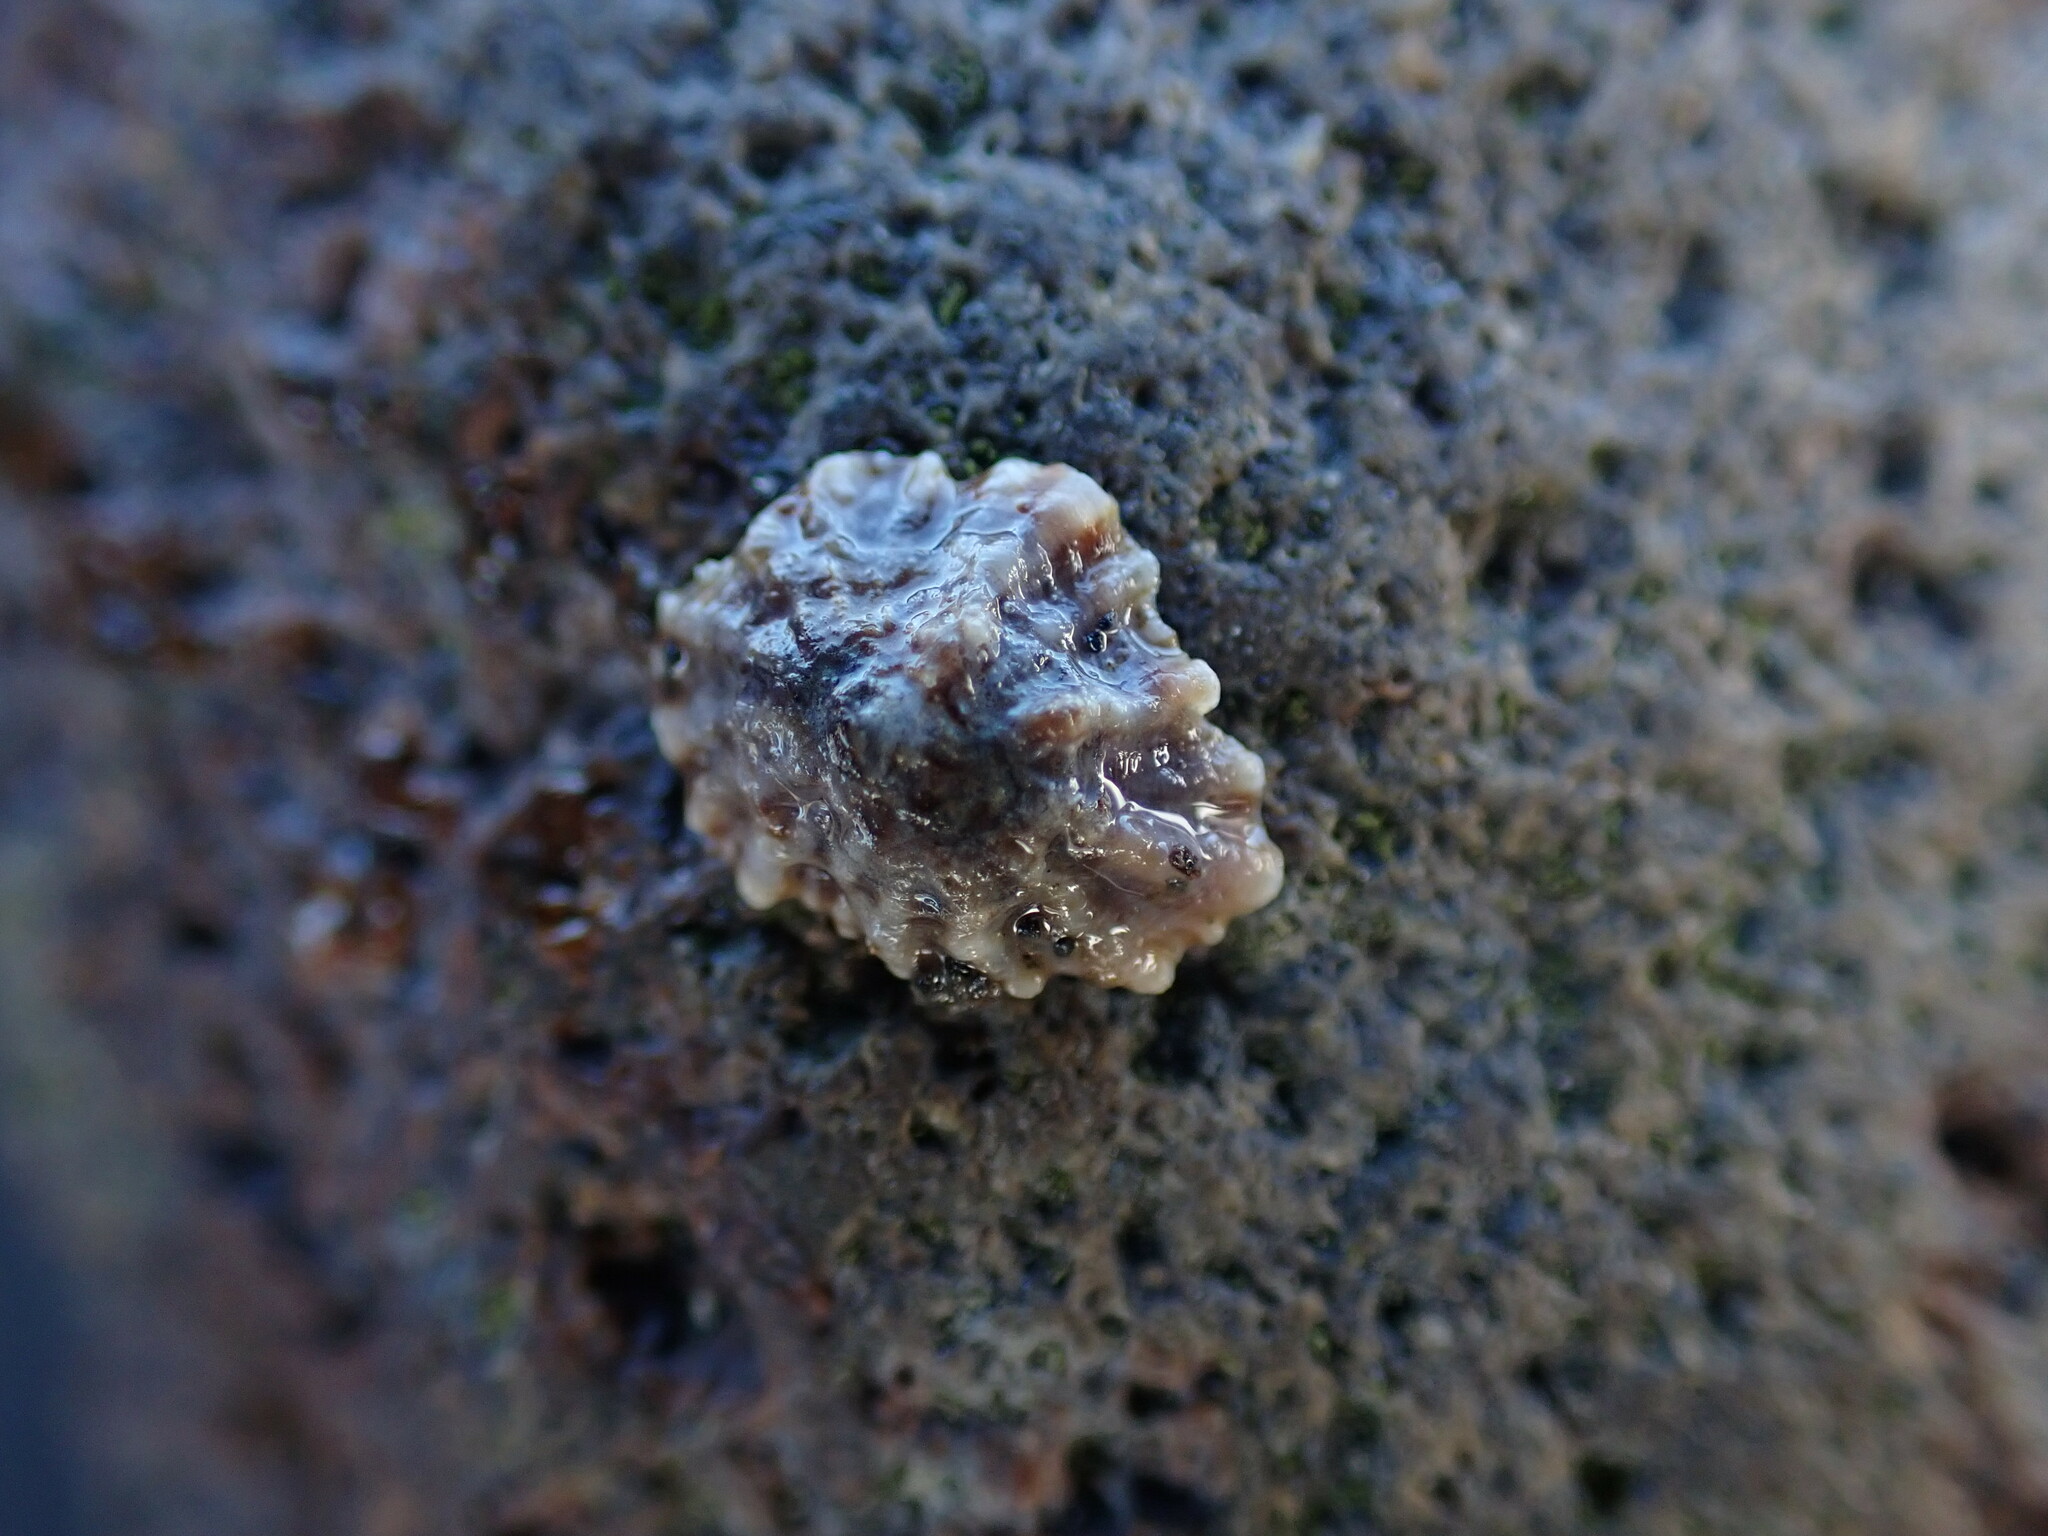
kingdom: Animalia
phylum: Mollusca
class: Gastropoda
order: Siphonariida
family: Siphonariidae
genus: Siphonaria
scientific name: Siphonaria australis
